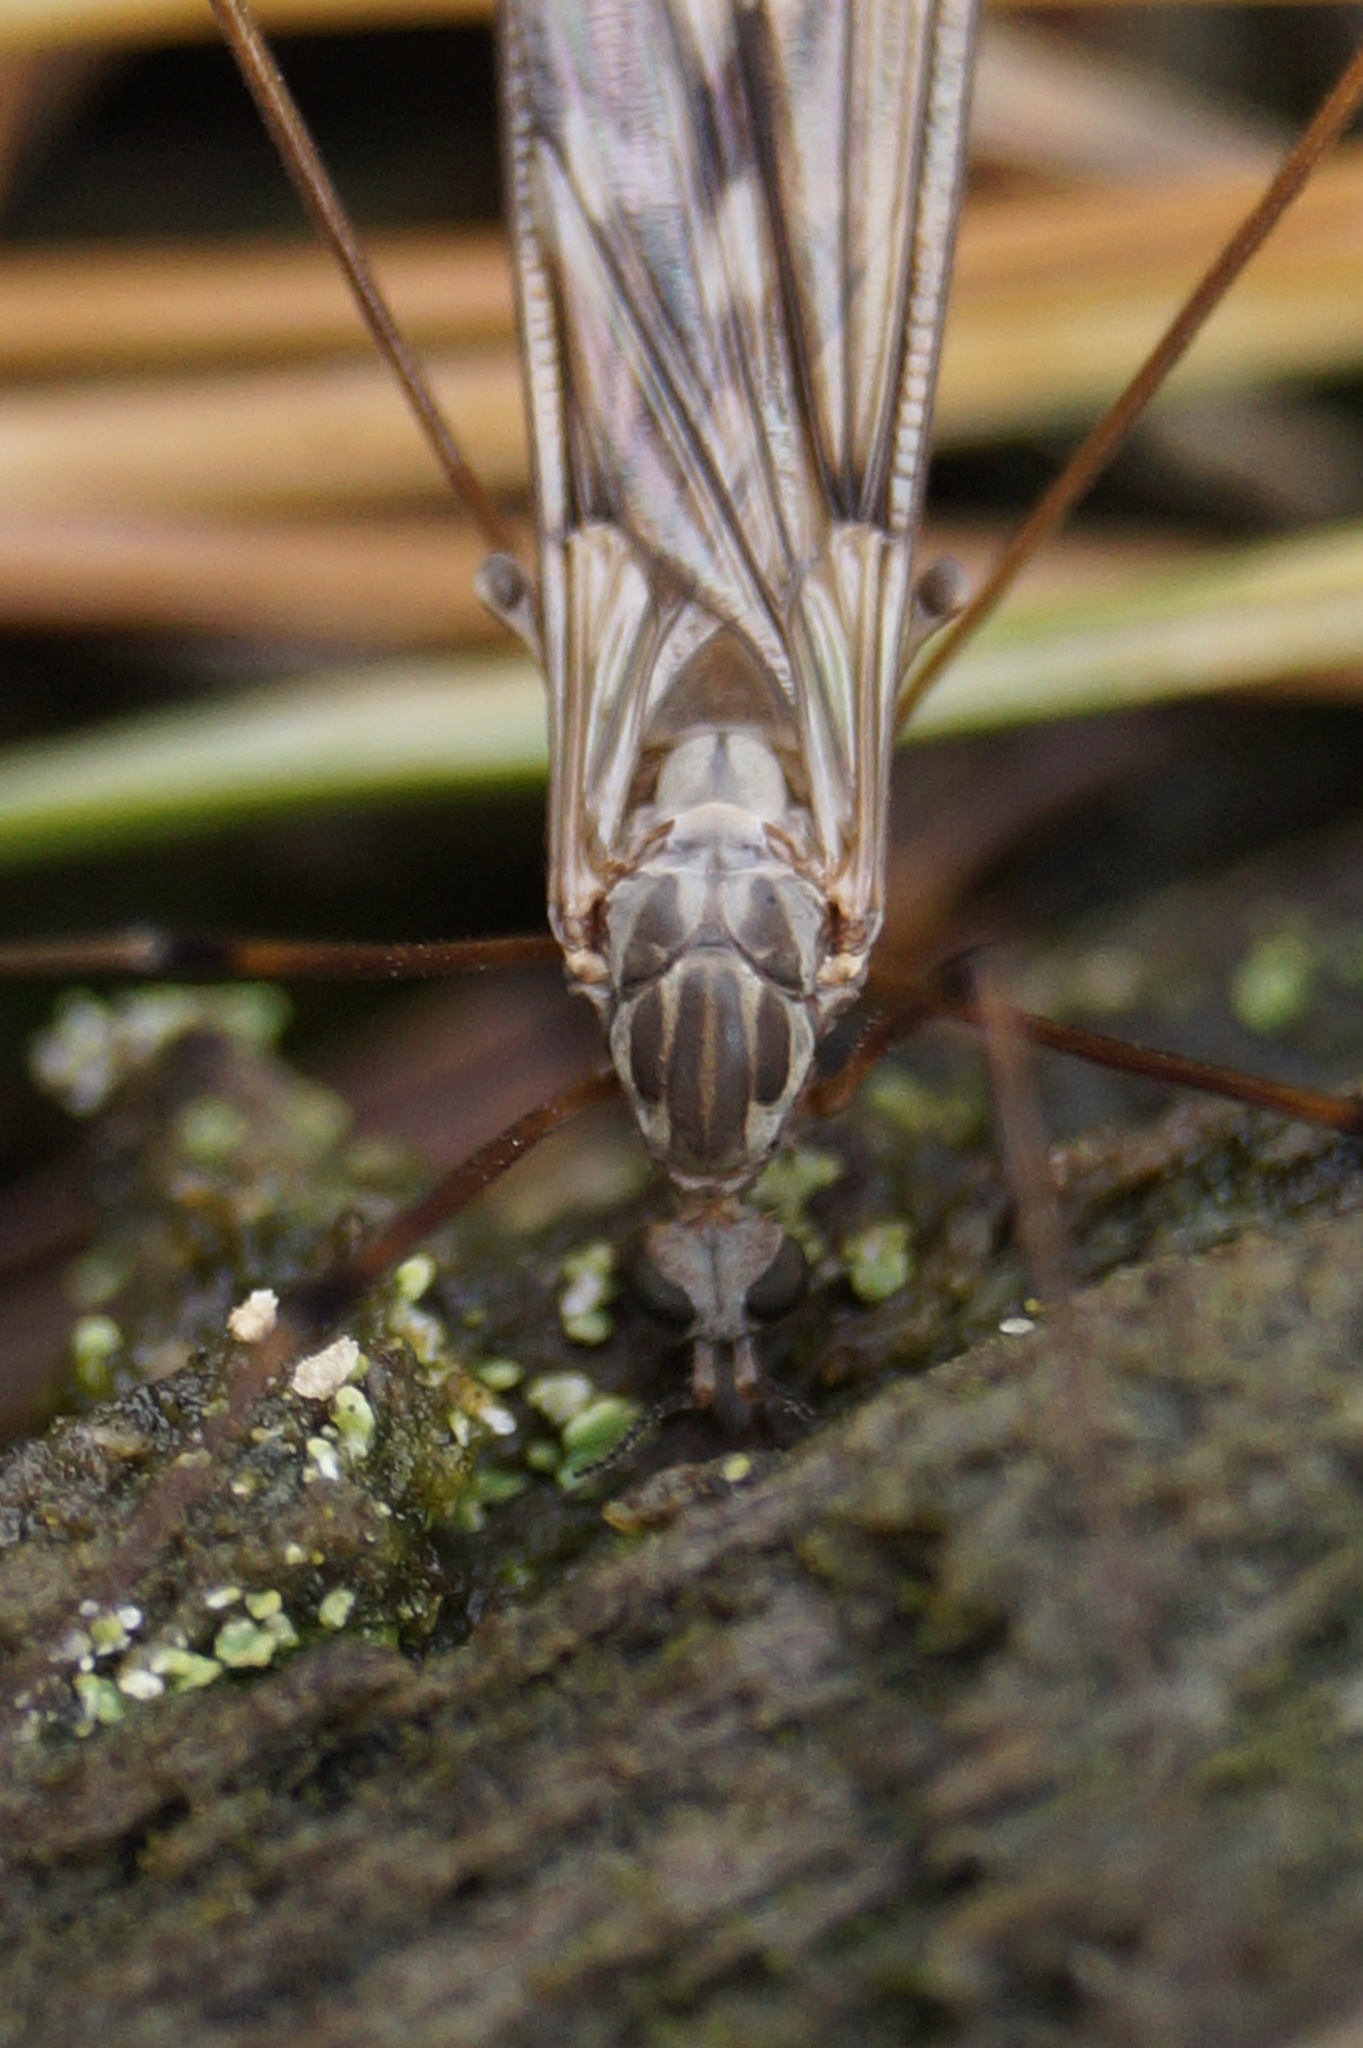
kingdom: Animalia
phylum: Arthropoda
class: Insecta
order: Diptera
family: Tipulidae
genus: Tipula
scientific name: Tipula confusa
